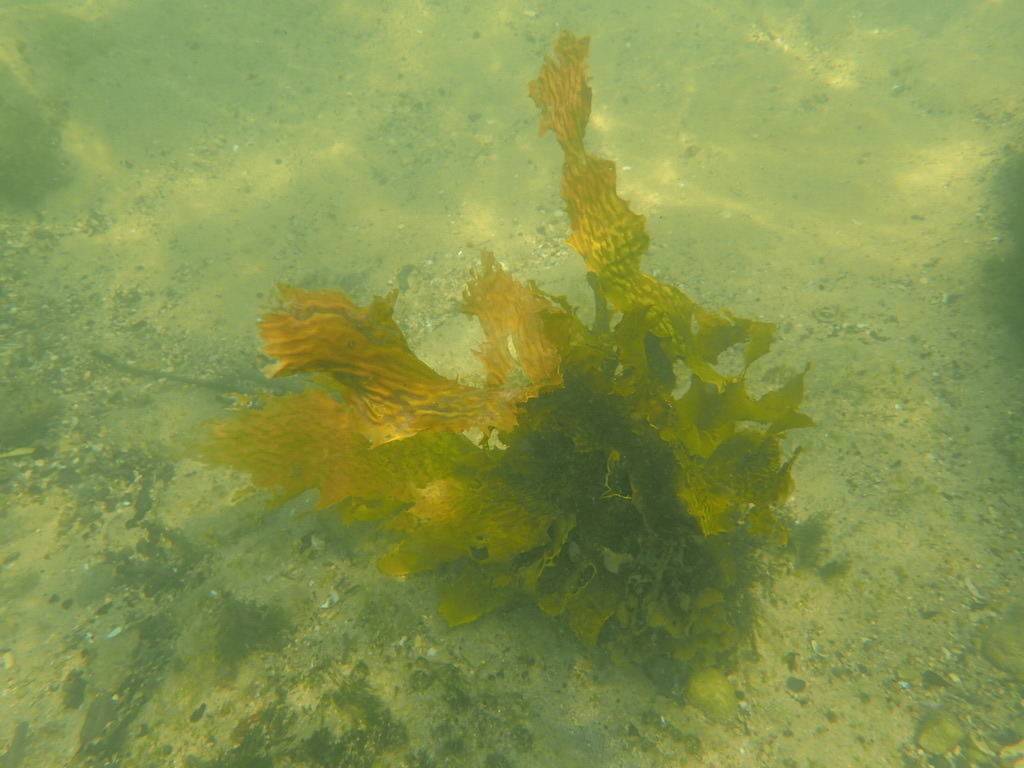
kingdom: Chromista
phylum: Ochrophyta
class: Phaeophyceae
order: Laminariales
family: Lessoniaceae
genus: Ecklonia
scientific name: Ecklonia radiata
